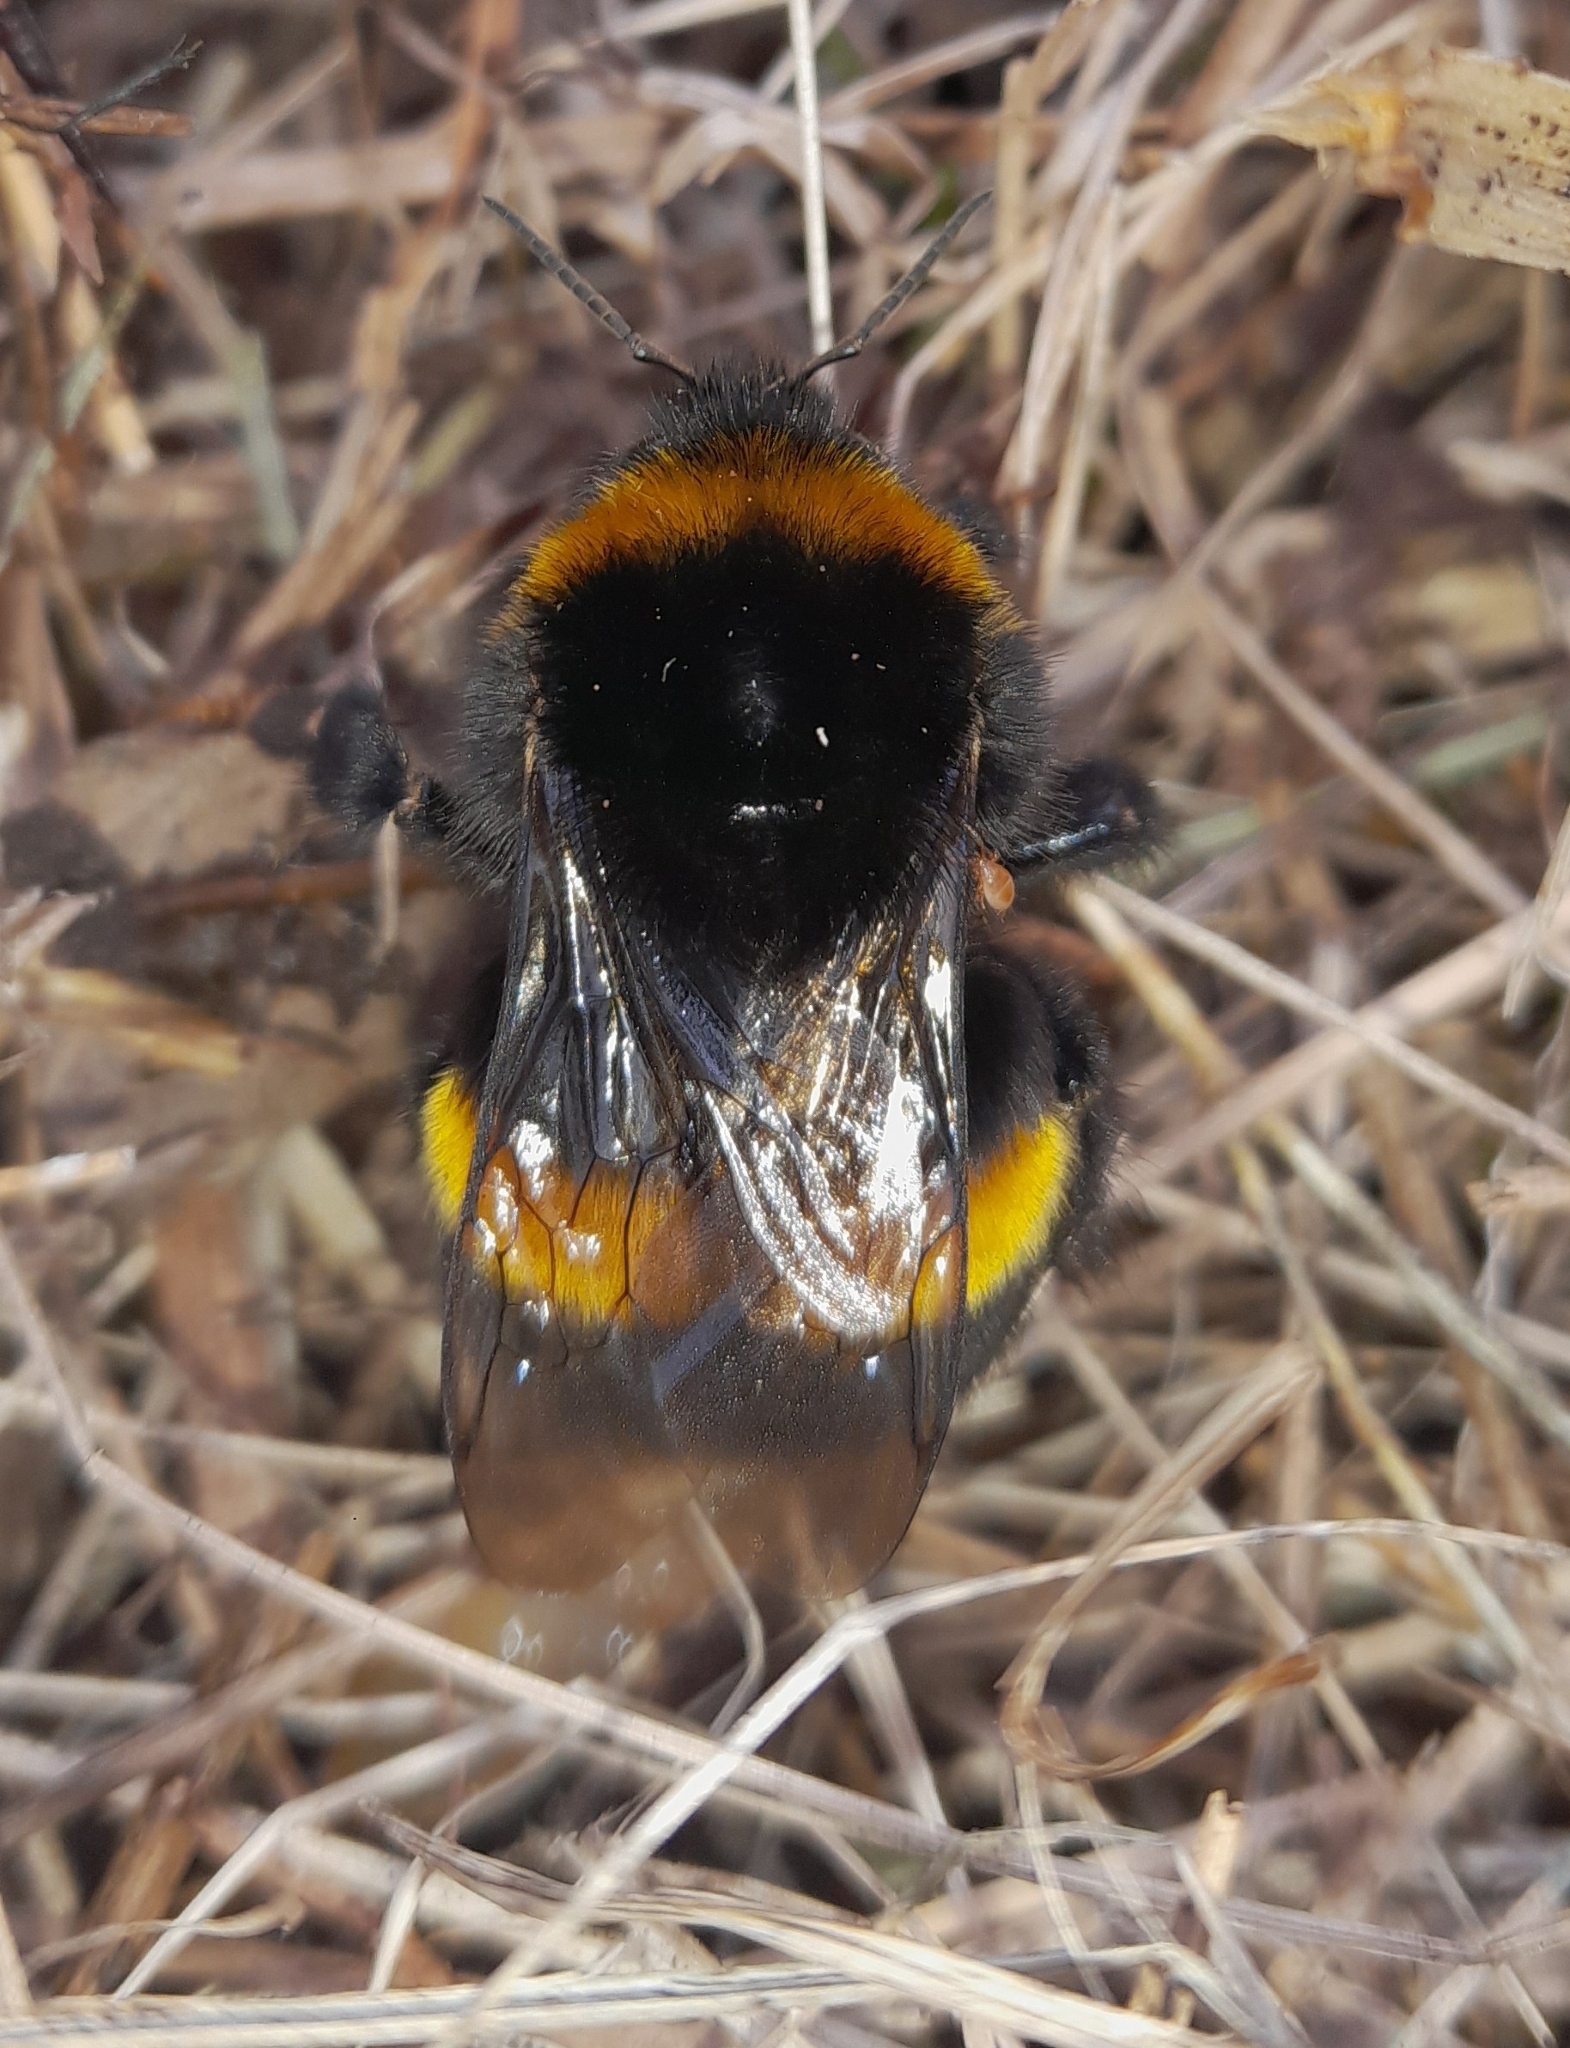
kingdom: Animalia
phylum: Arthropoda
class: Insecta
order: Hymenoptera
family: Apidae
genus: Bombus
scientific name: Bombus terrestris
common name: Buff-tailed bumblebee
